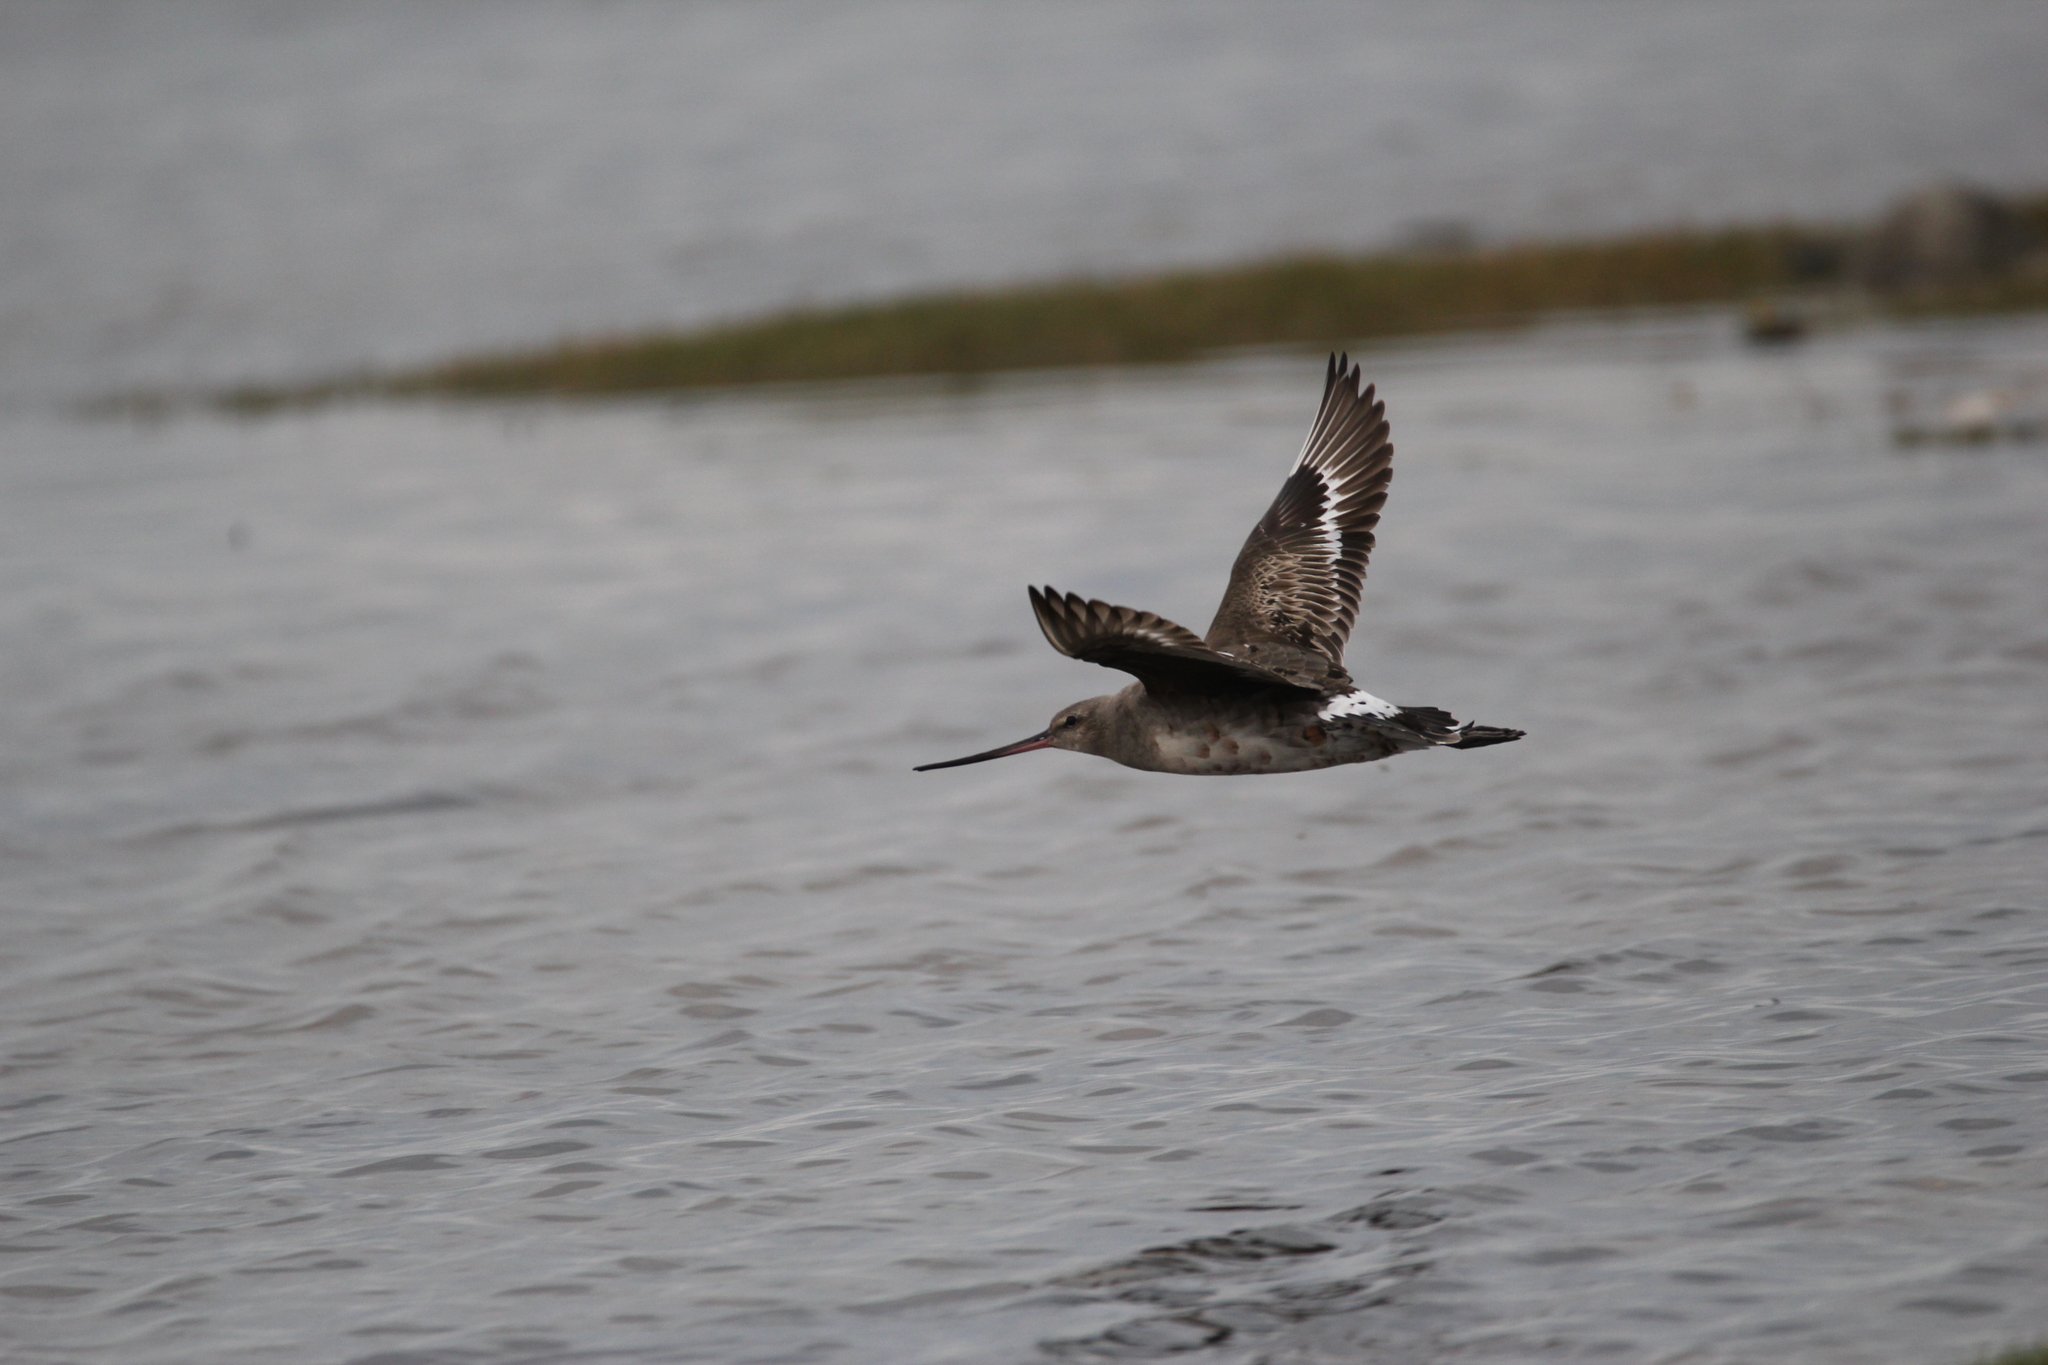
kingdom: Animalia
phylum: Chordata
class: Aves
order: Charadriiformes
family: Scolopacidae
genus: Limosa
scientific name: Limosa haemastica
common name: Hudsonian godwit
